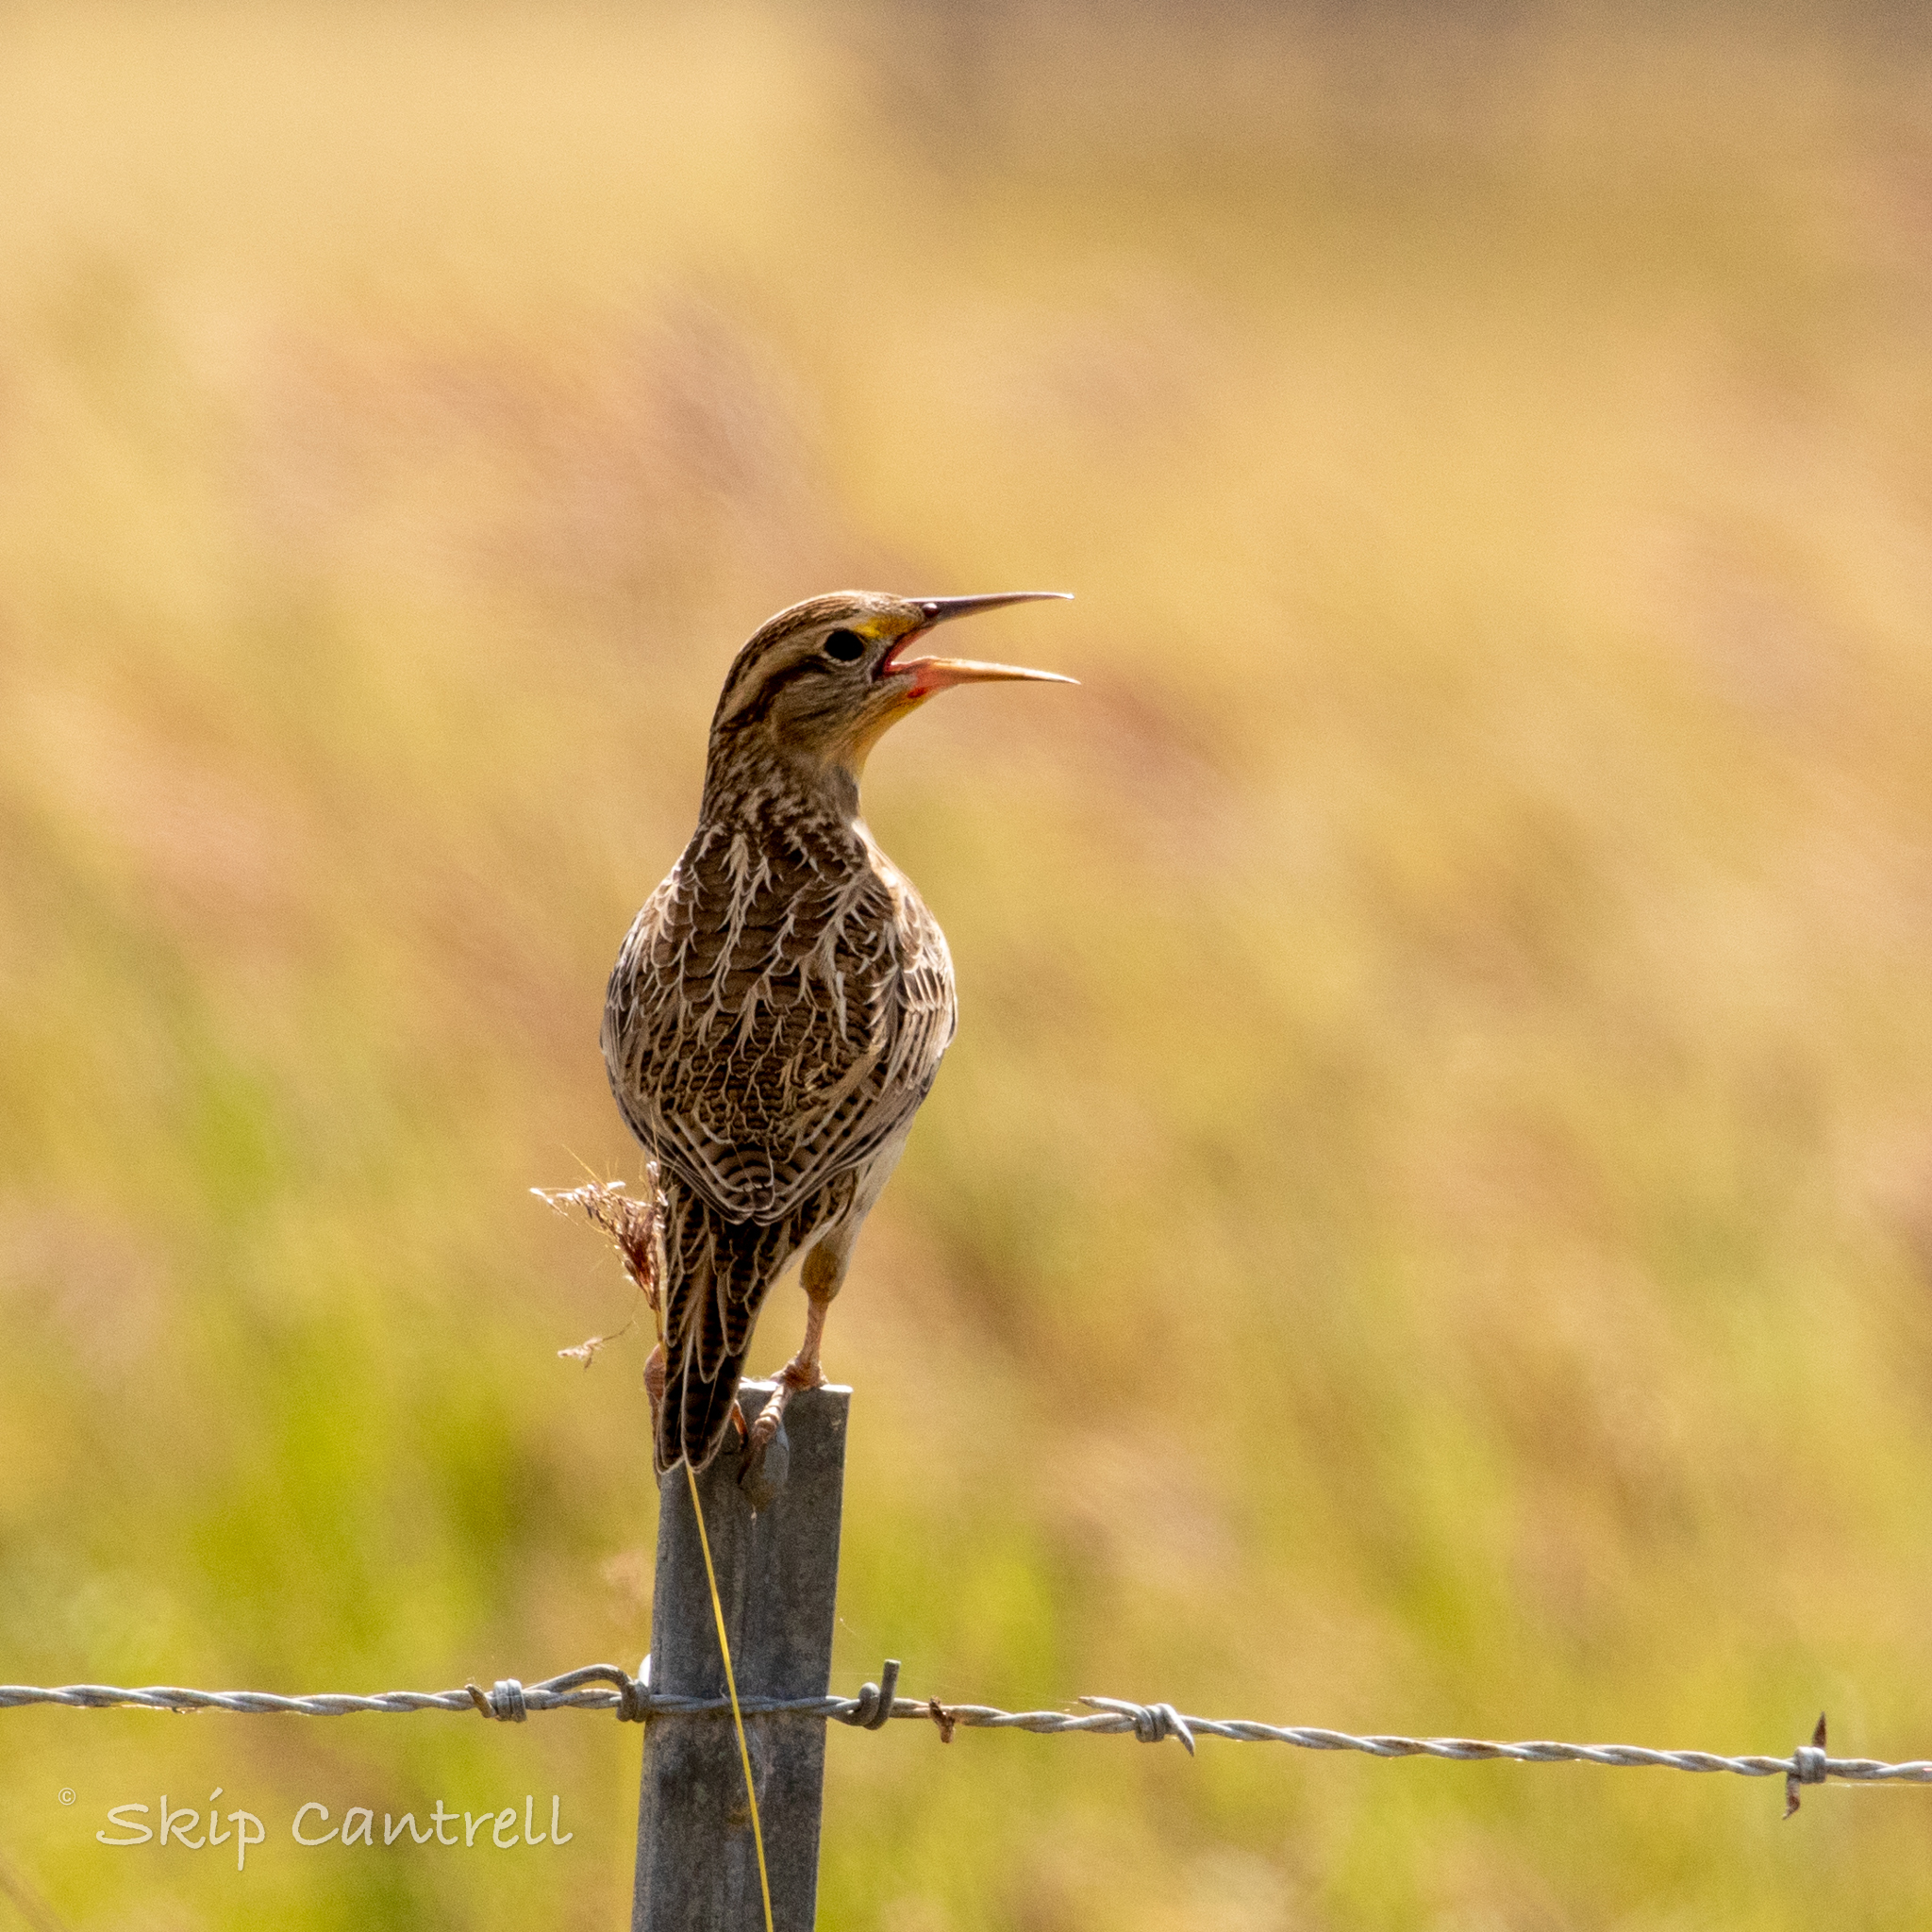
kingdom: Animalia
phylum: Chordata
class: Aves
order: Passeriformes
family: Icteridae
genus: Sturnella
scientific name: Sturnella magna
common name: Eastern meadowlark
